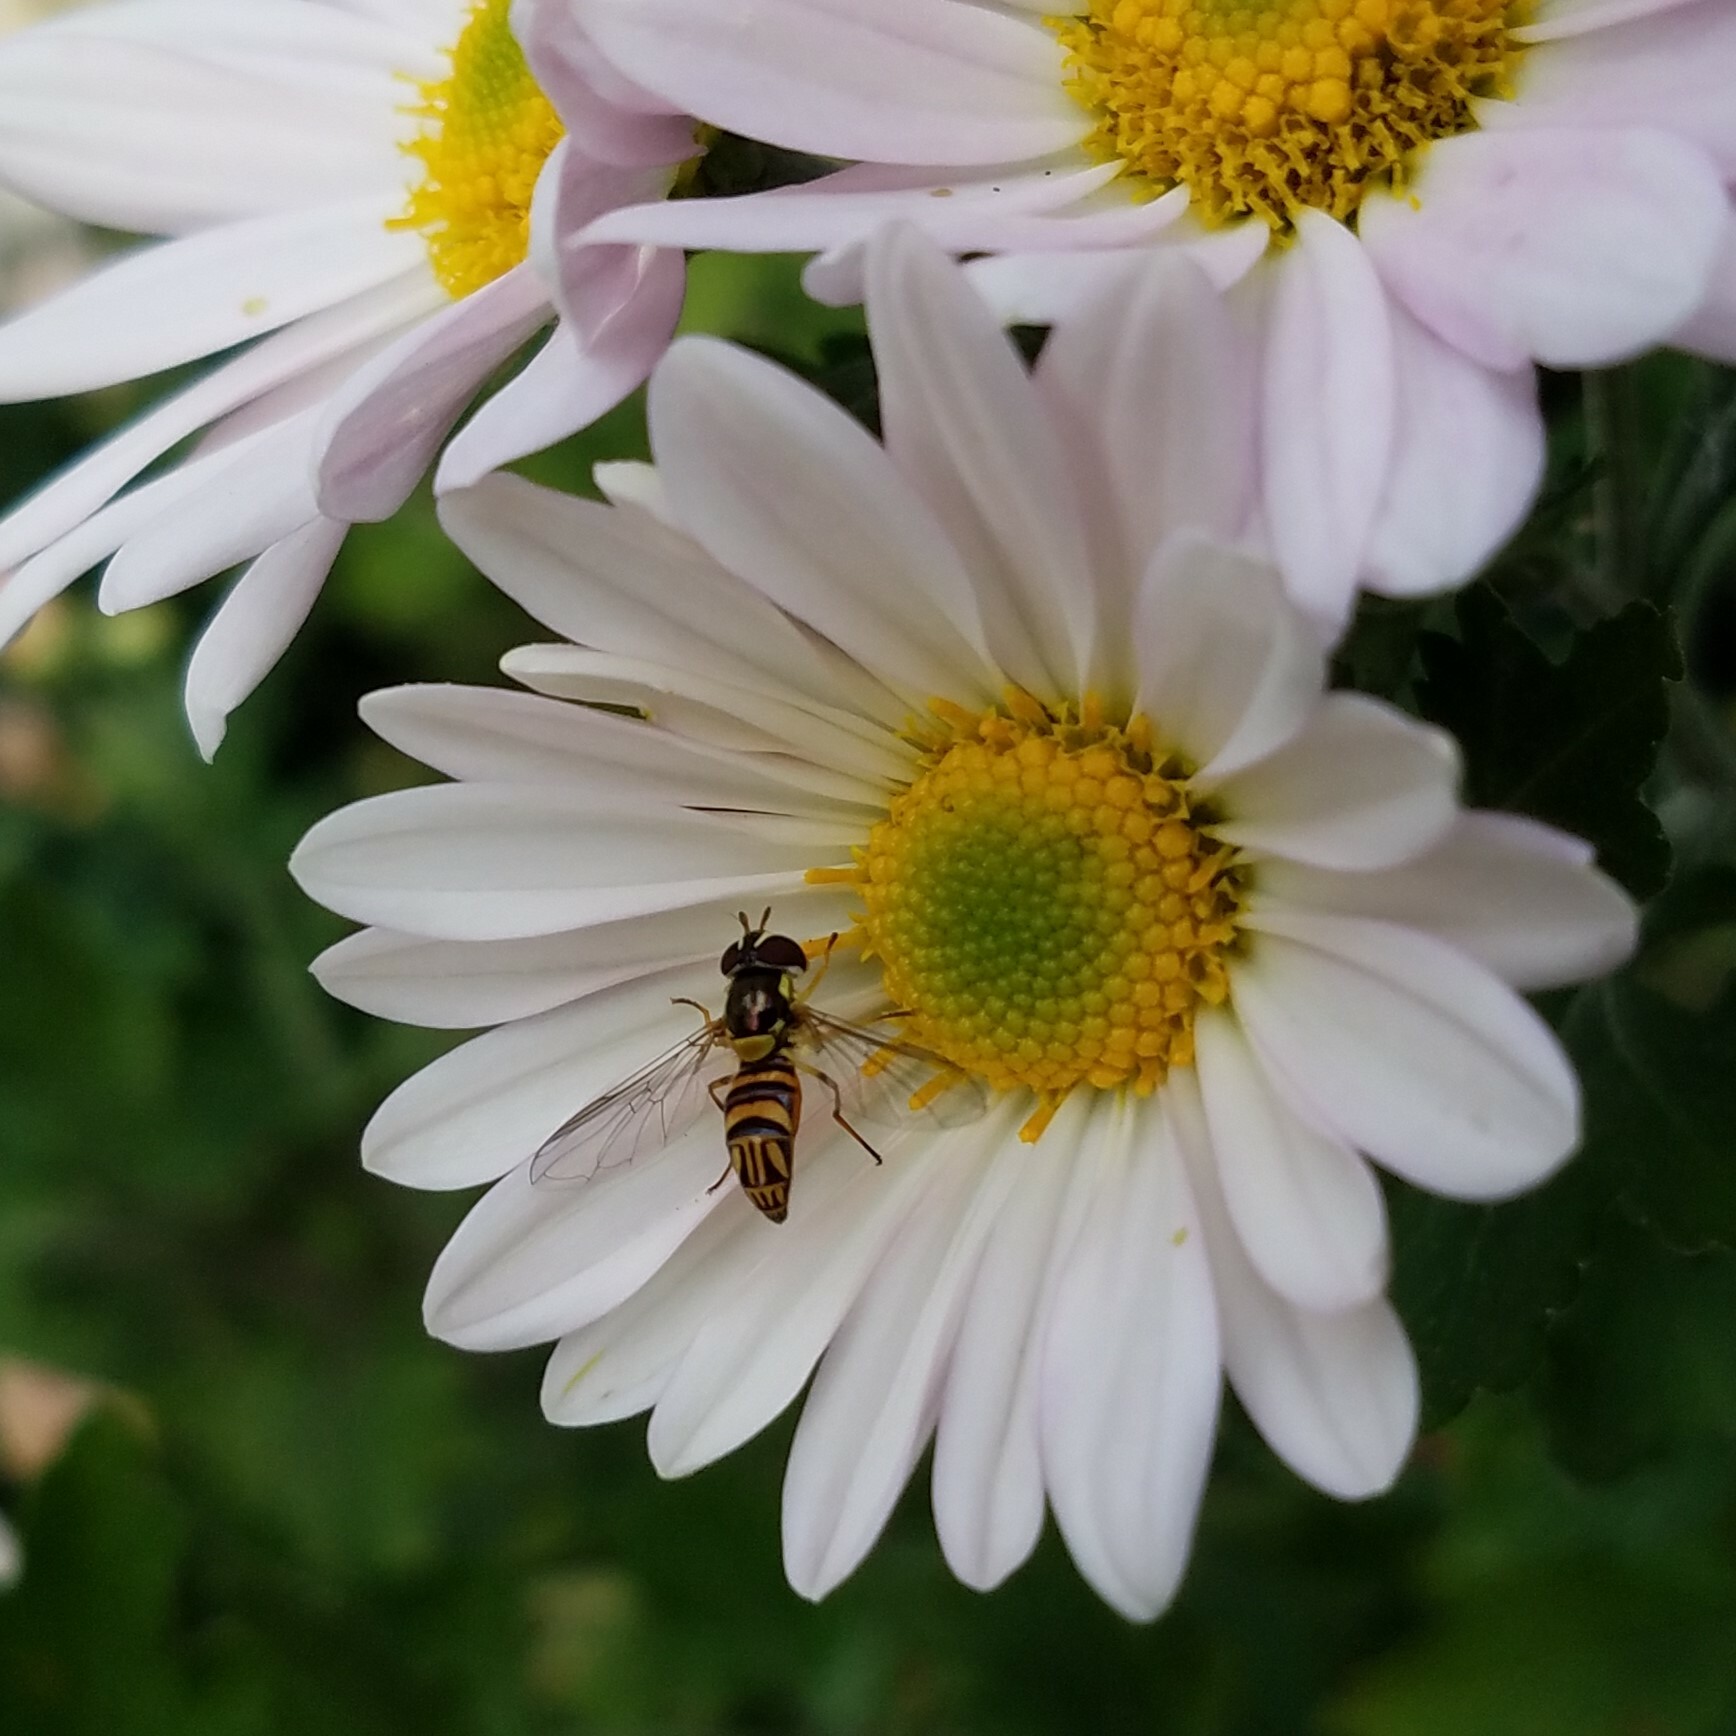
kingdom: Animalia
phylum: Arthropoda
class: Insecta
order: Diptera
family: Syrphidae
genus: Allograpta
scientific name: Allograpta obliqua
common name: Common oblique syrphid
